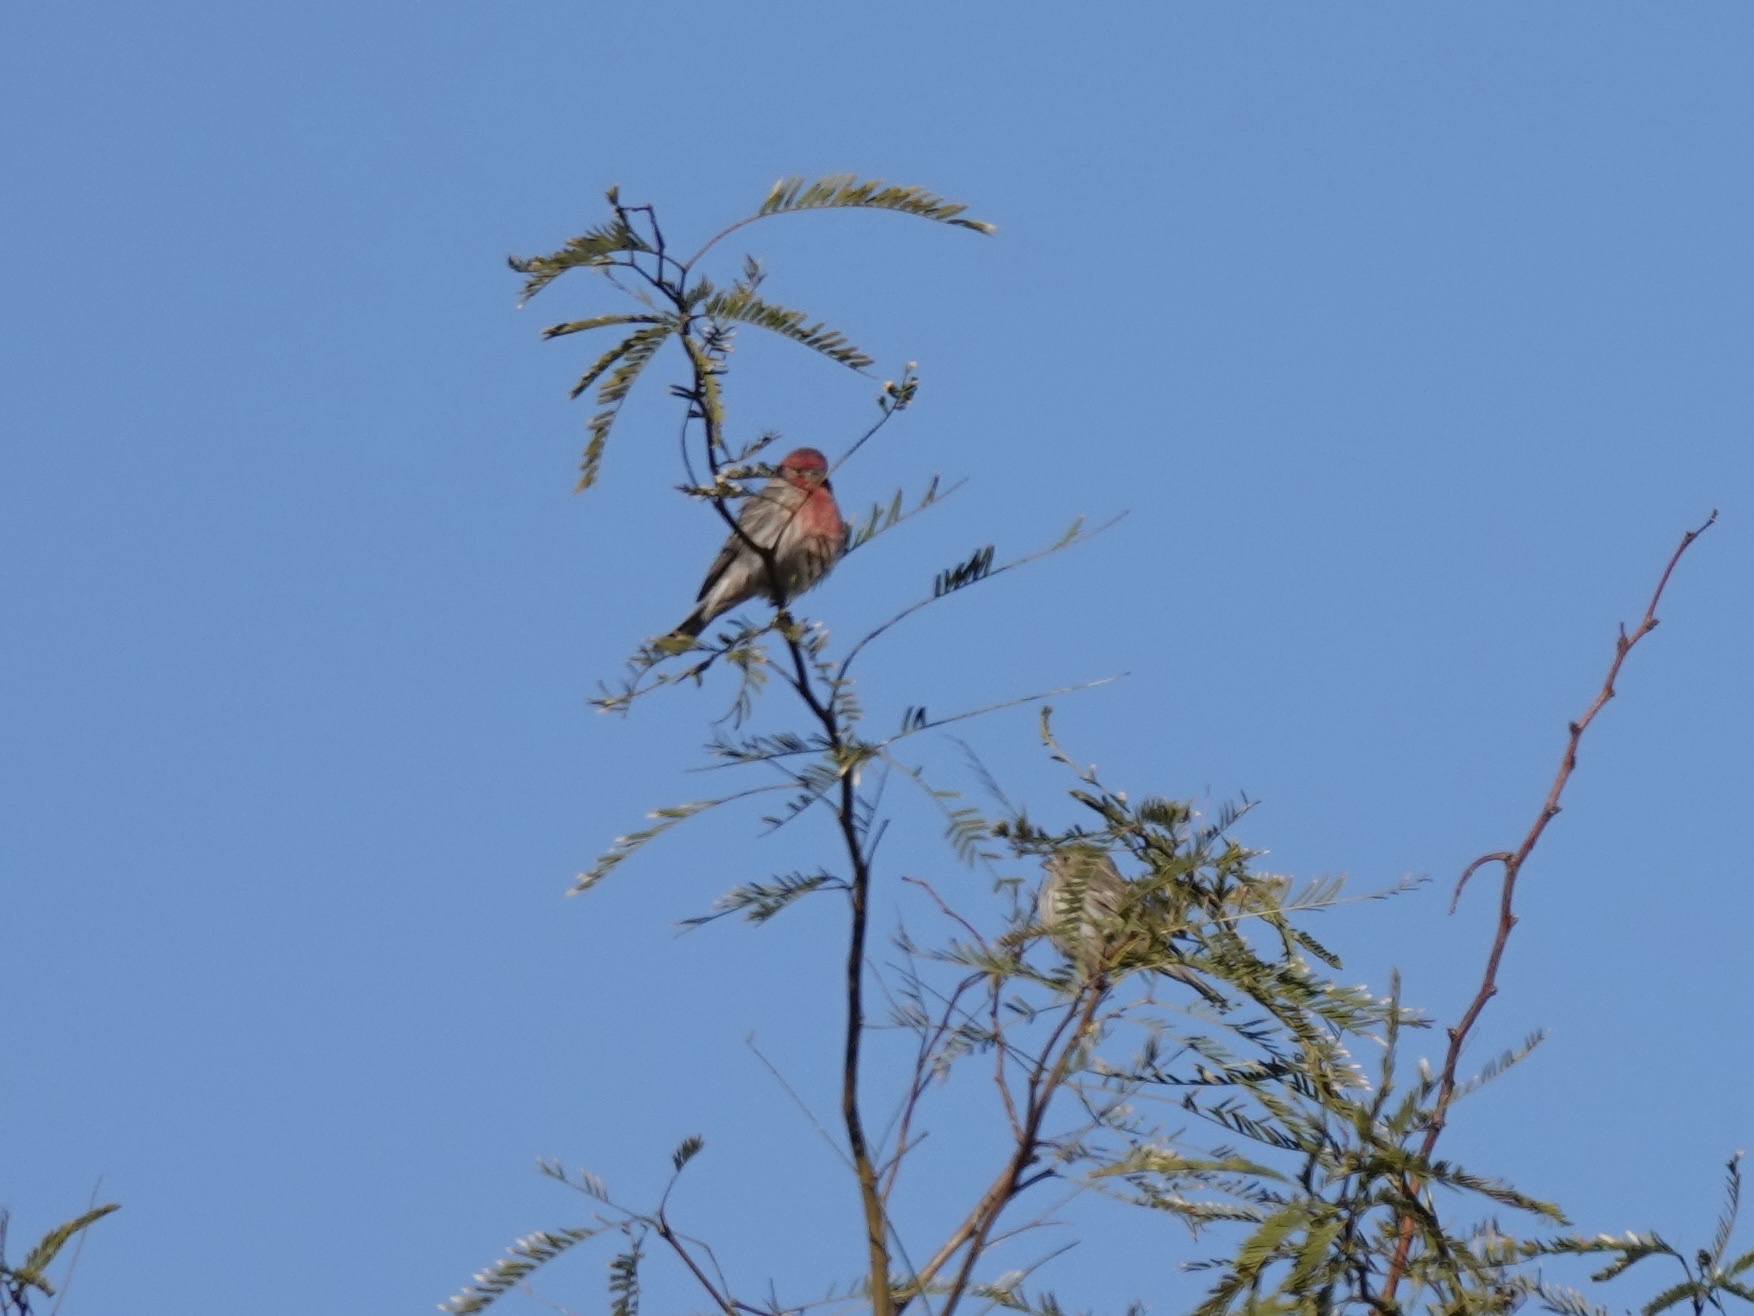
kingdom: Animalia
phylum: Chordata
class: Aves
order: Passeriformes
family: Fringillidae
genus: Haemorhous
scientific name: Haemorhous mexicanus
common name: House finch
